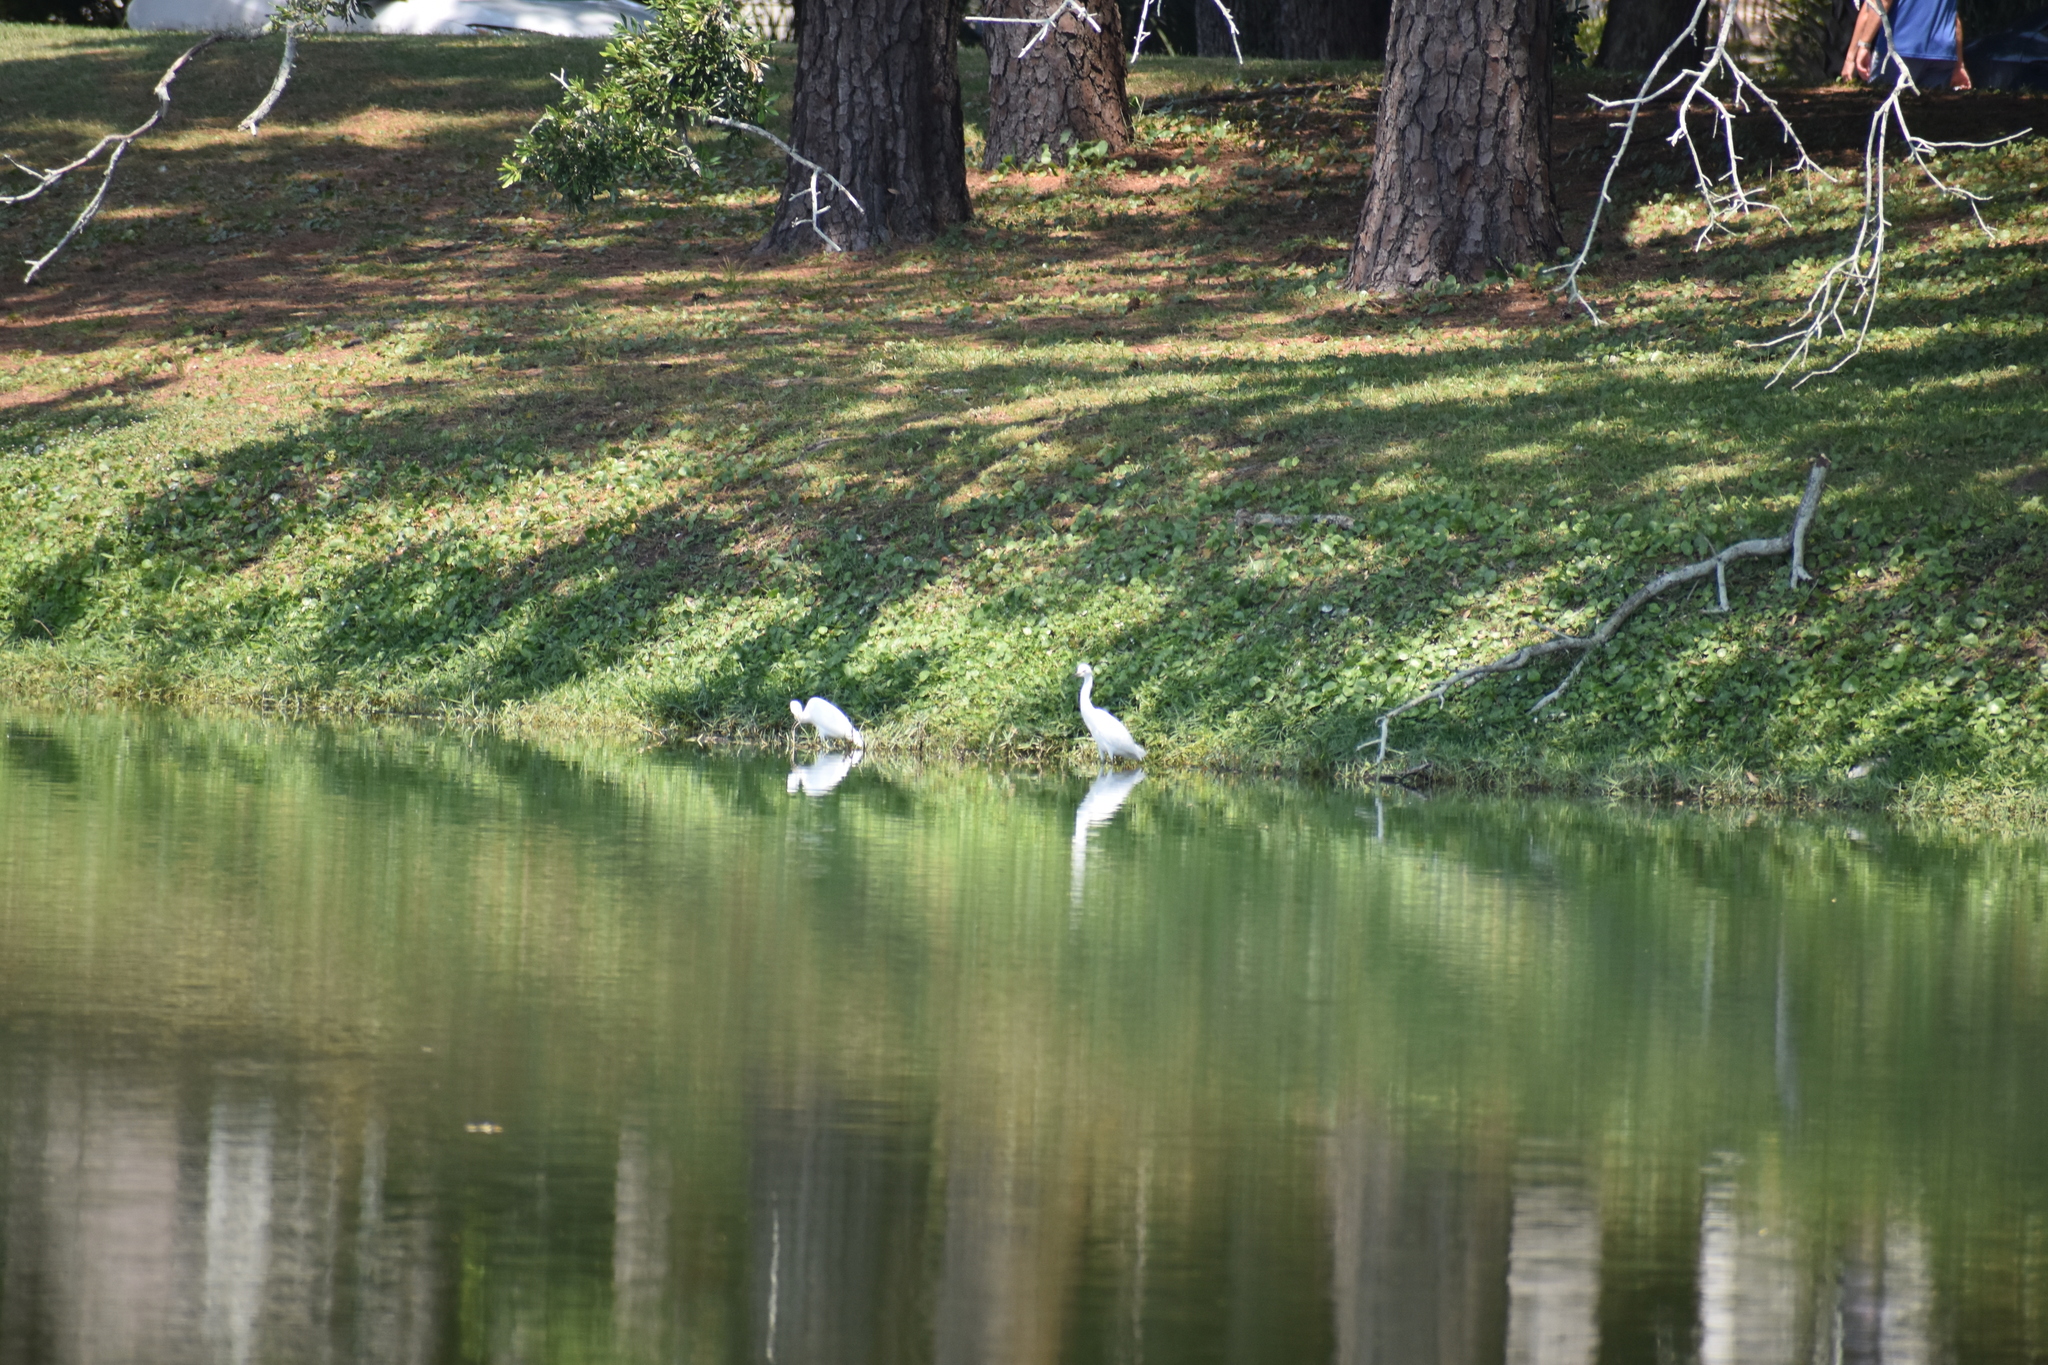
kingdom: Animalia
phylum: Chordata
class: Aves
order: Pelecaniformes
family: Ardeidae
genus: Egretta
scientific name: Egretta thula
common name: Snowy egret
